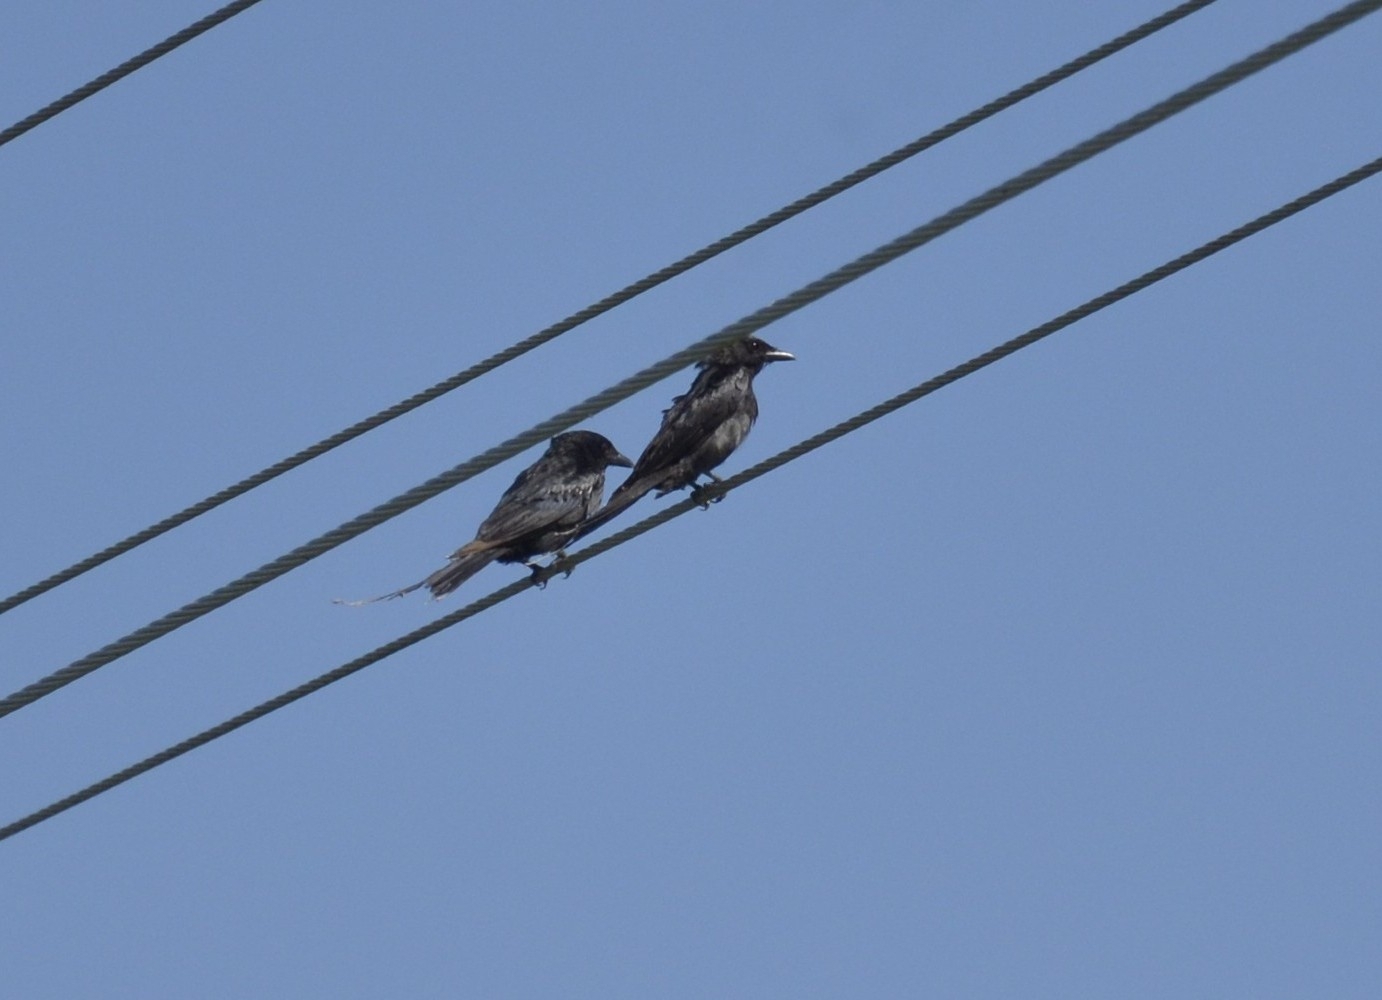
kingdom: Animalia
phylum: Chordata
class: Aves
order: Passeriformes
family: Dicruridae
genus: Dicrurus
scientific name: Dicrurus macrocercus
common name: Black drongo
